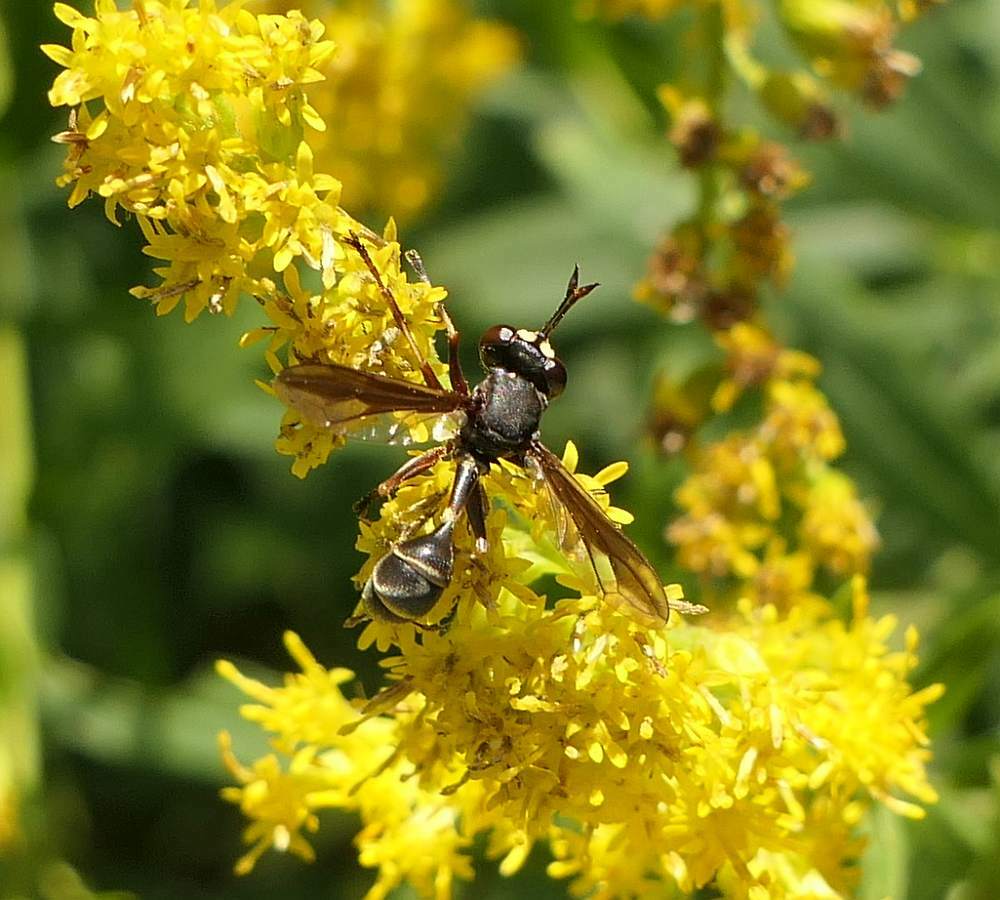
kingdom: Animalia
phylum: Arthropoda
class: Insecta
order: Diptera
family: Conopidae
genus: Physocephala
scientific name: Physocephala furcillata
